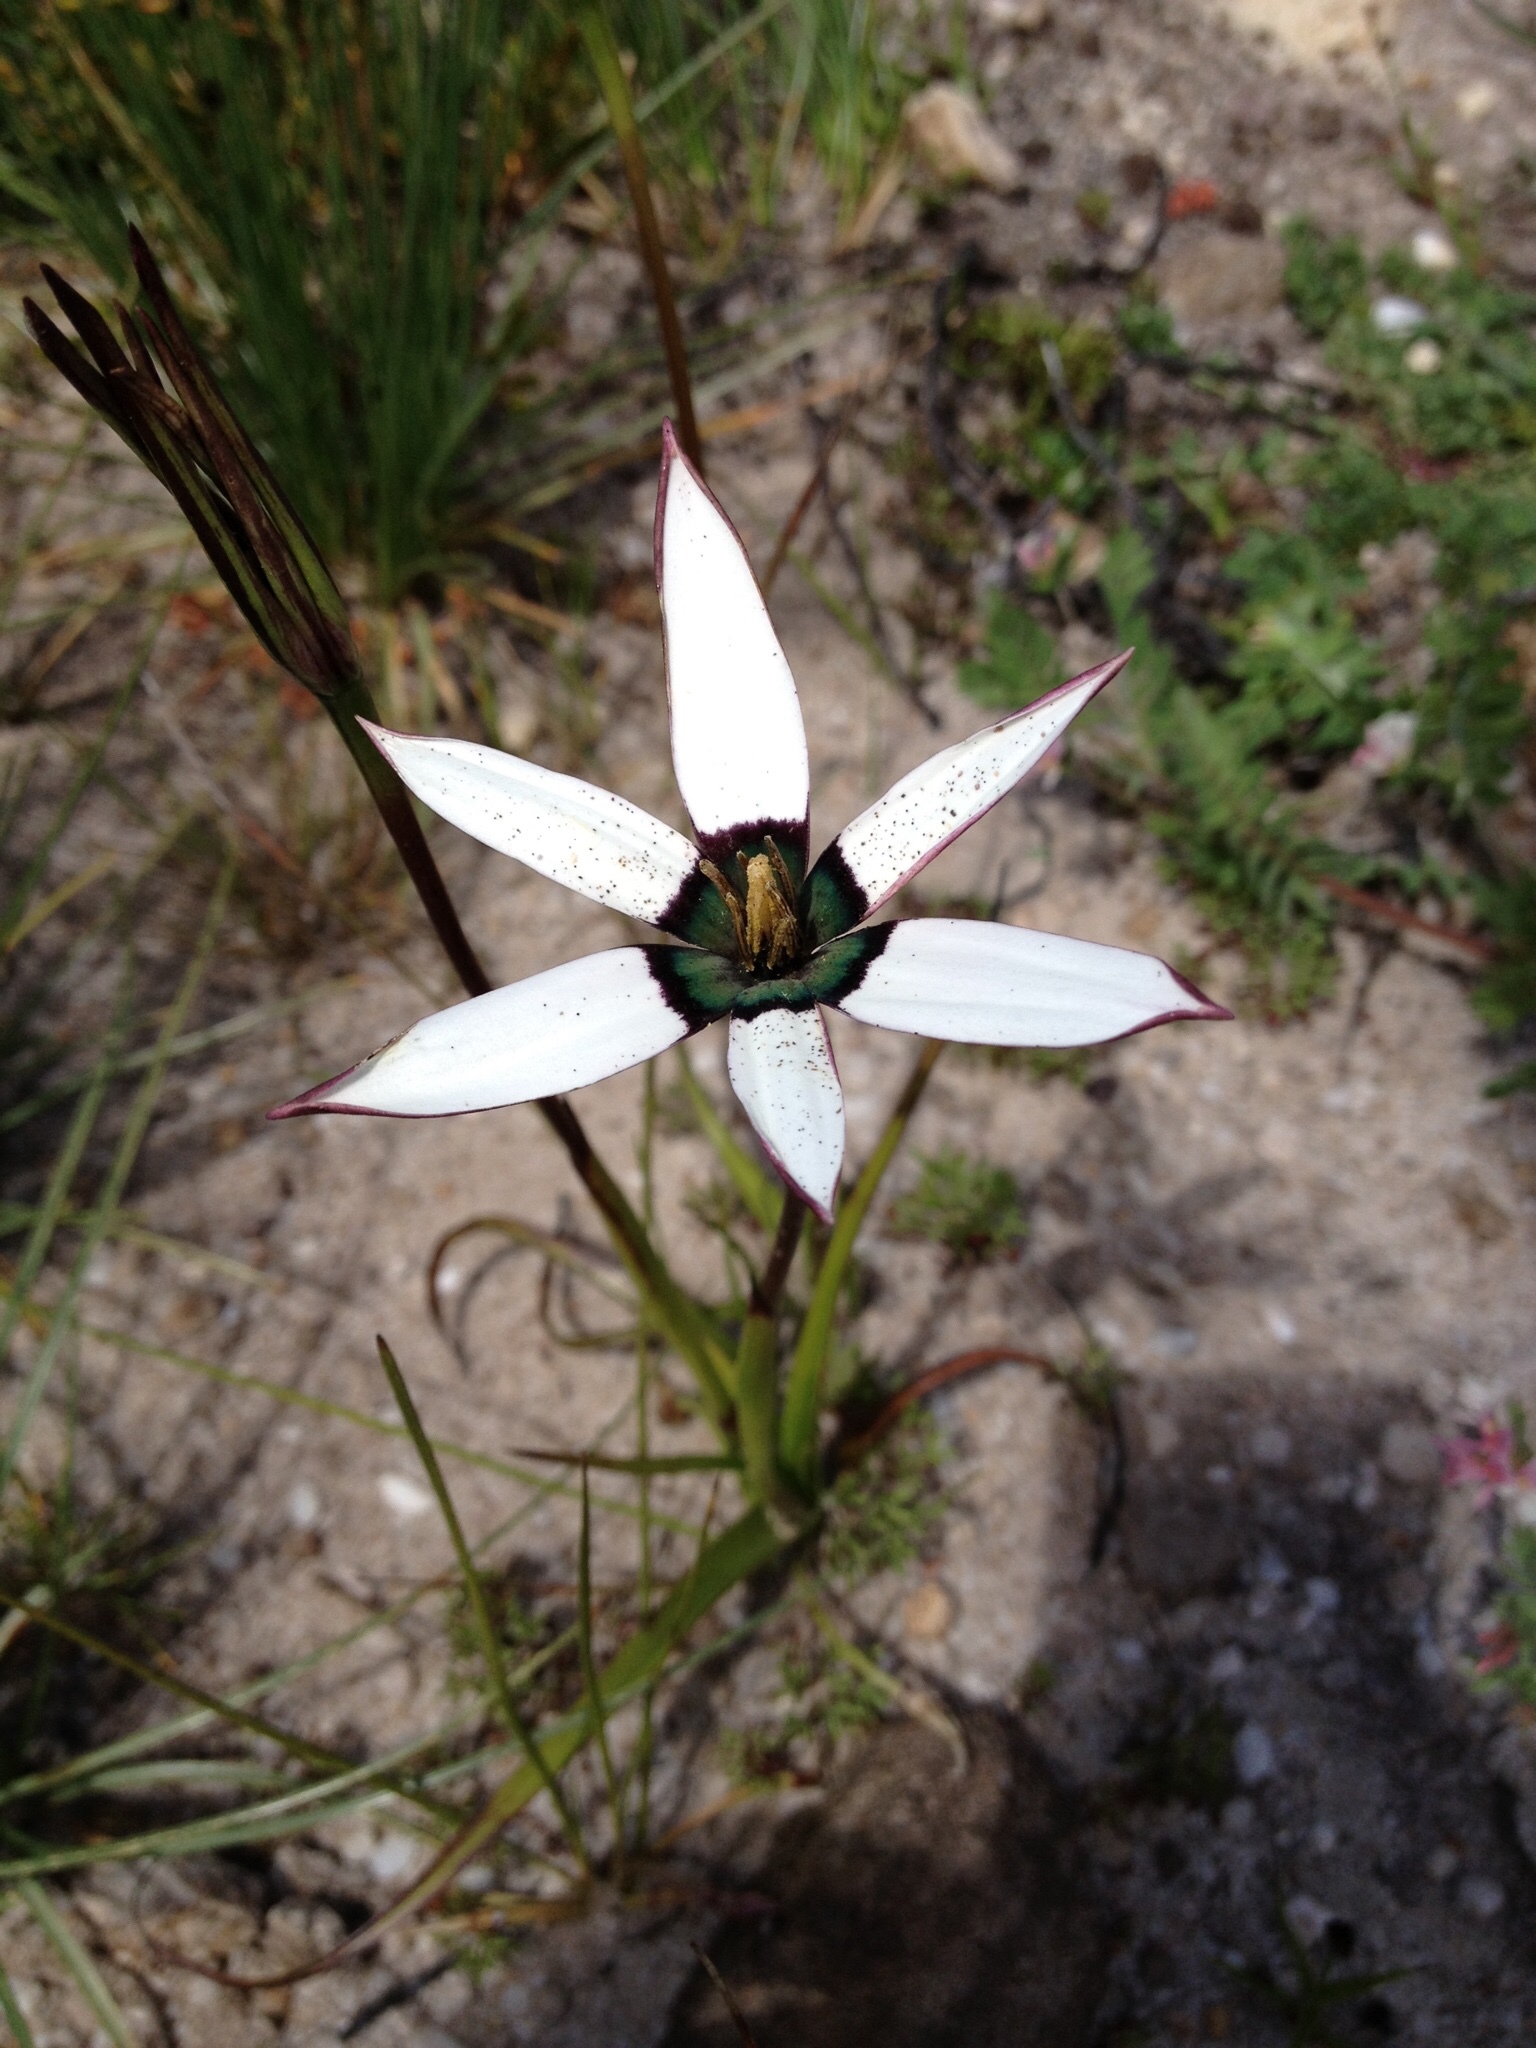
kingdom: Plantae
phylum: Tracheophyta
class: Liliopsida
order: Asparagales
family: Hypoxidaceae
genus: Pauridia
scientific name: Pauridia capensis
